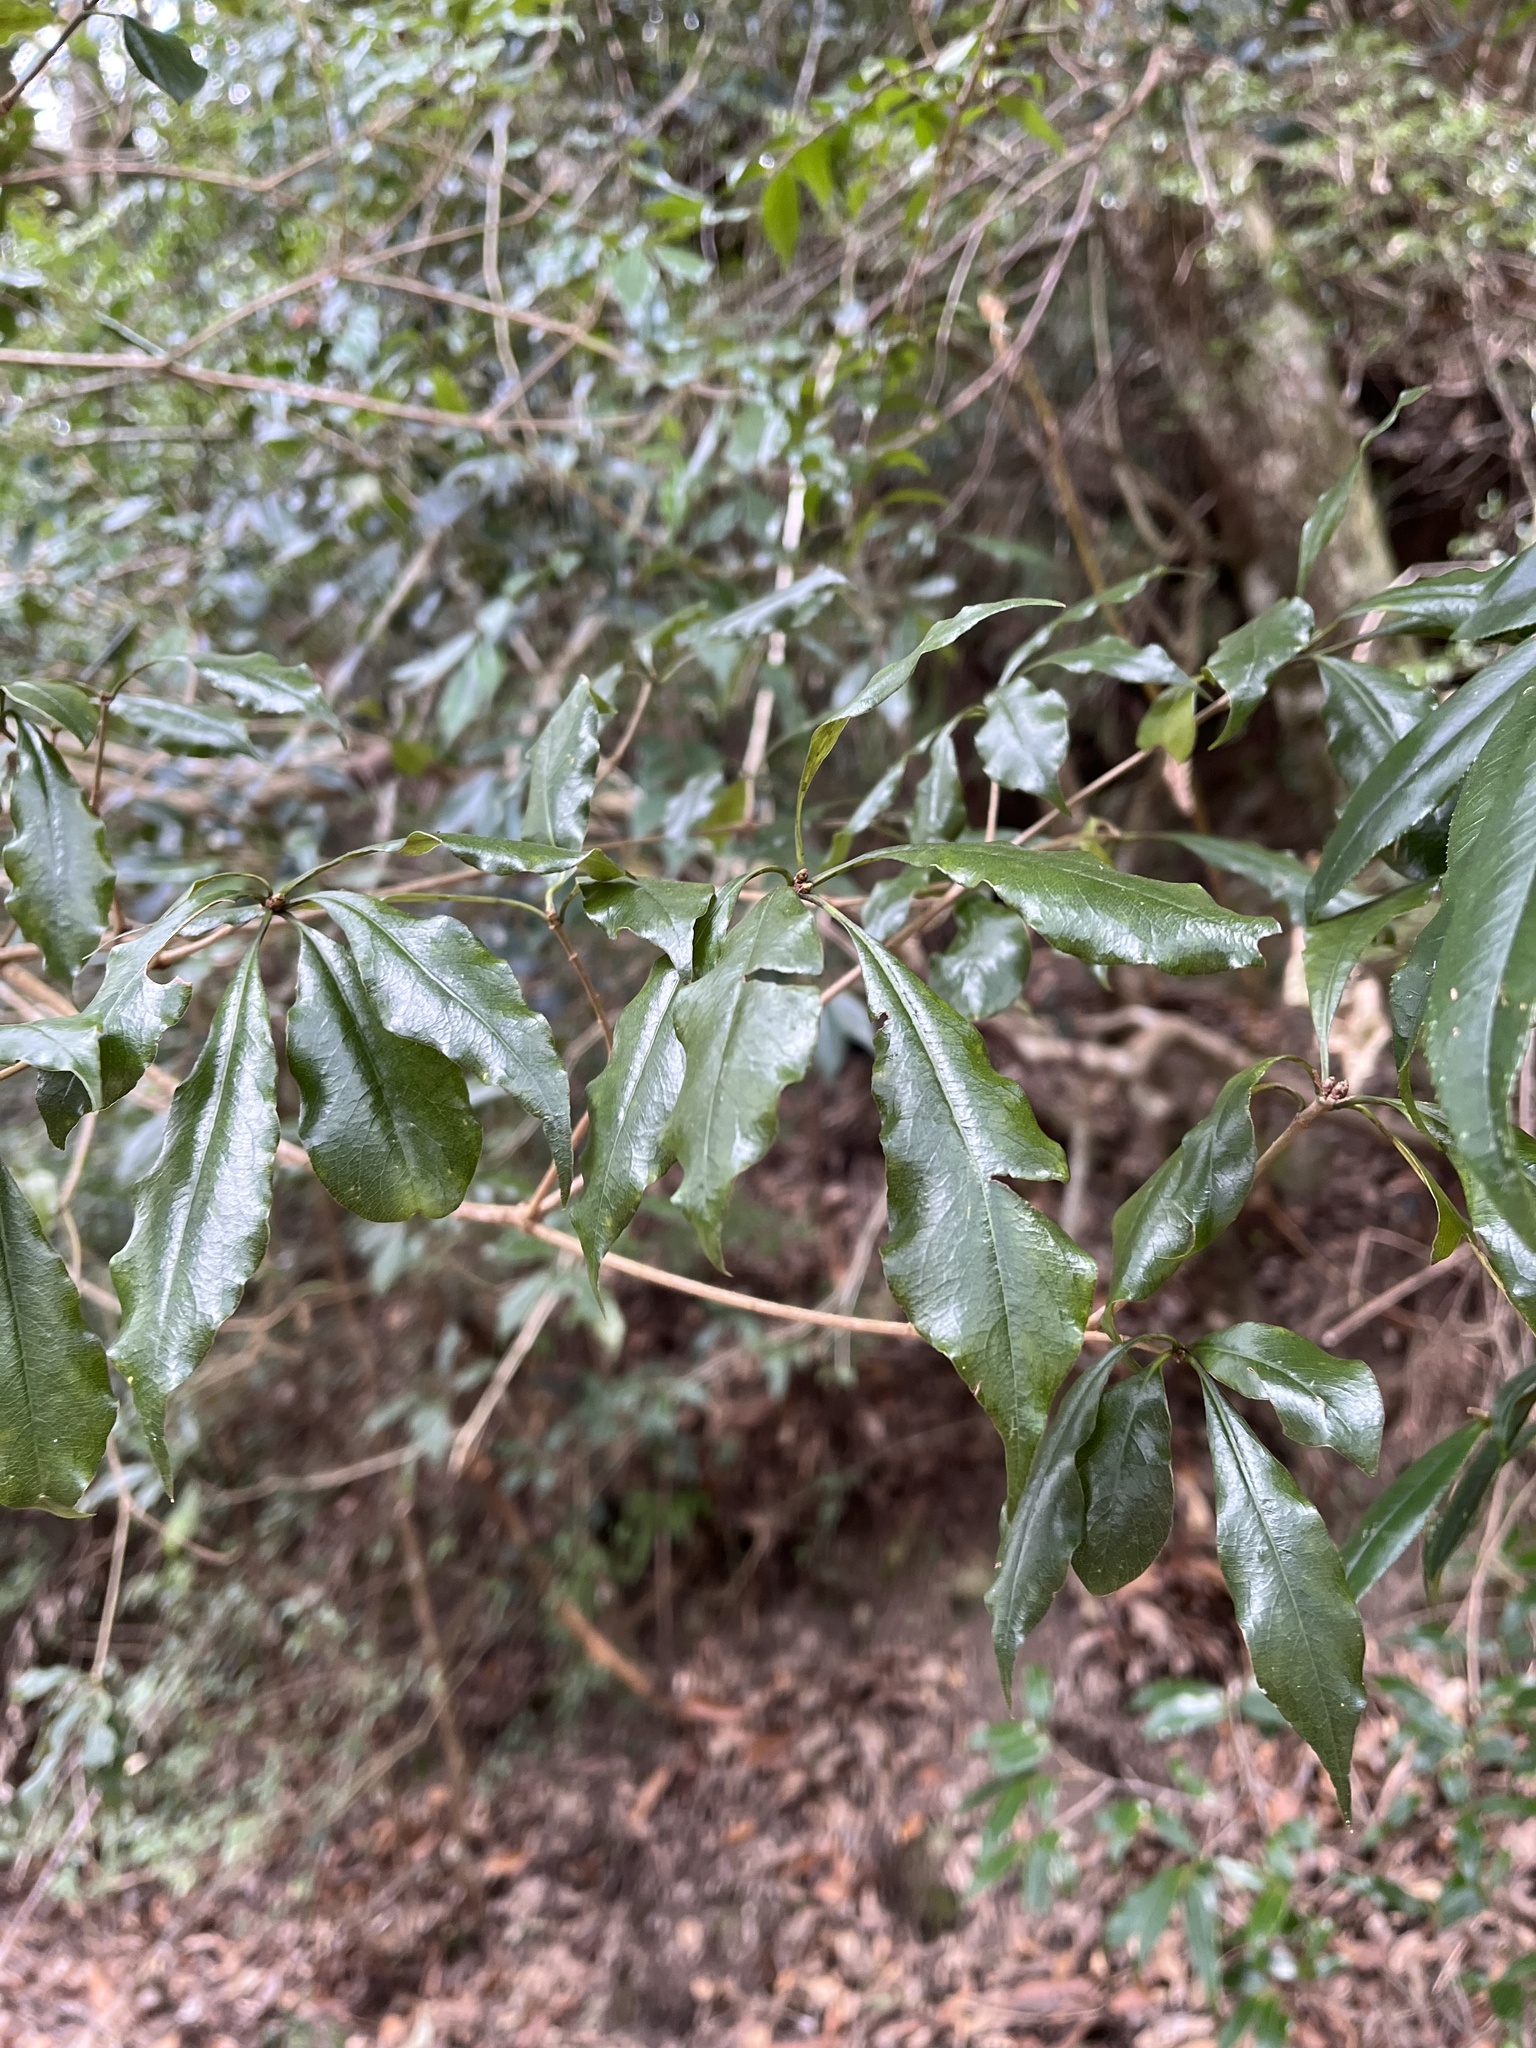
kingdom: Plantae
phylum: Tracheophyta
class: Magnoliopsida
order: Apiales
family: Pittosporaceae
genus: Pittosporum
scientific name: Pittosporum illicioides
